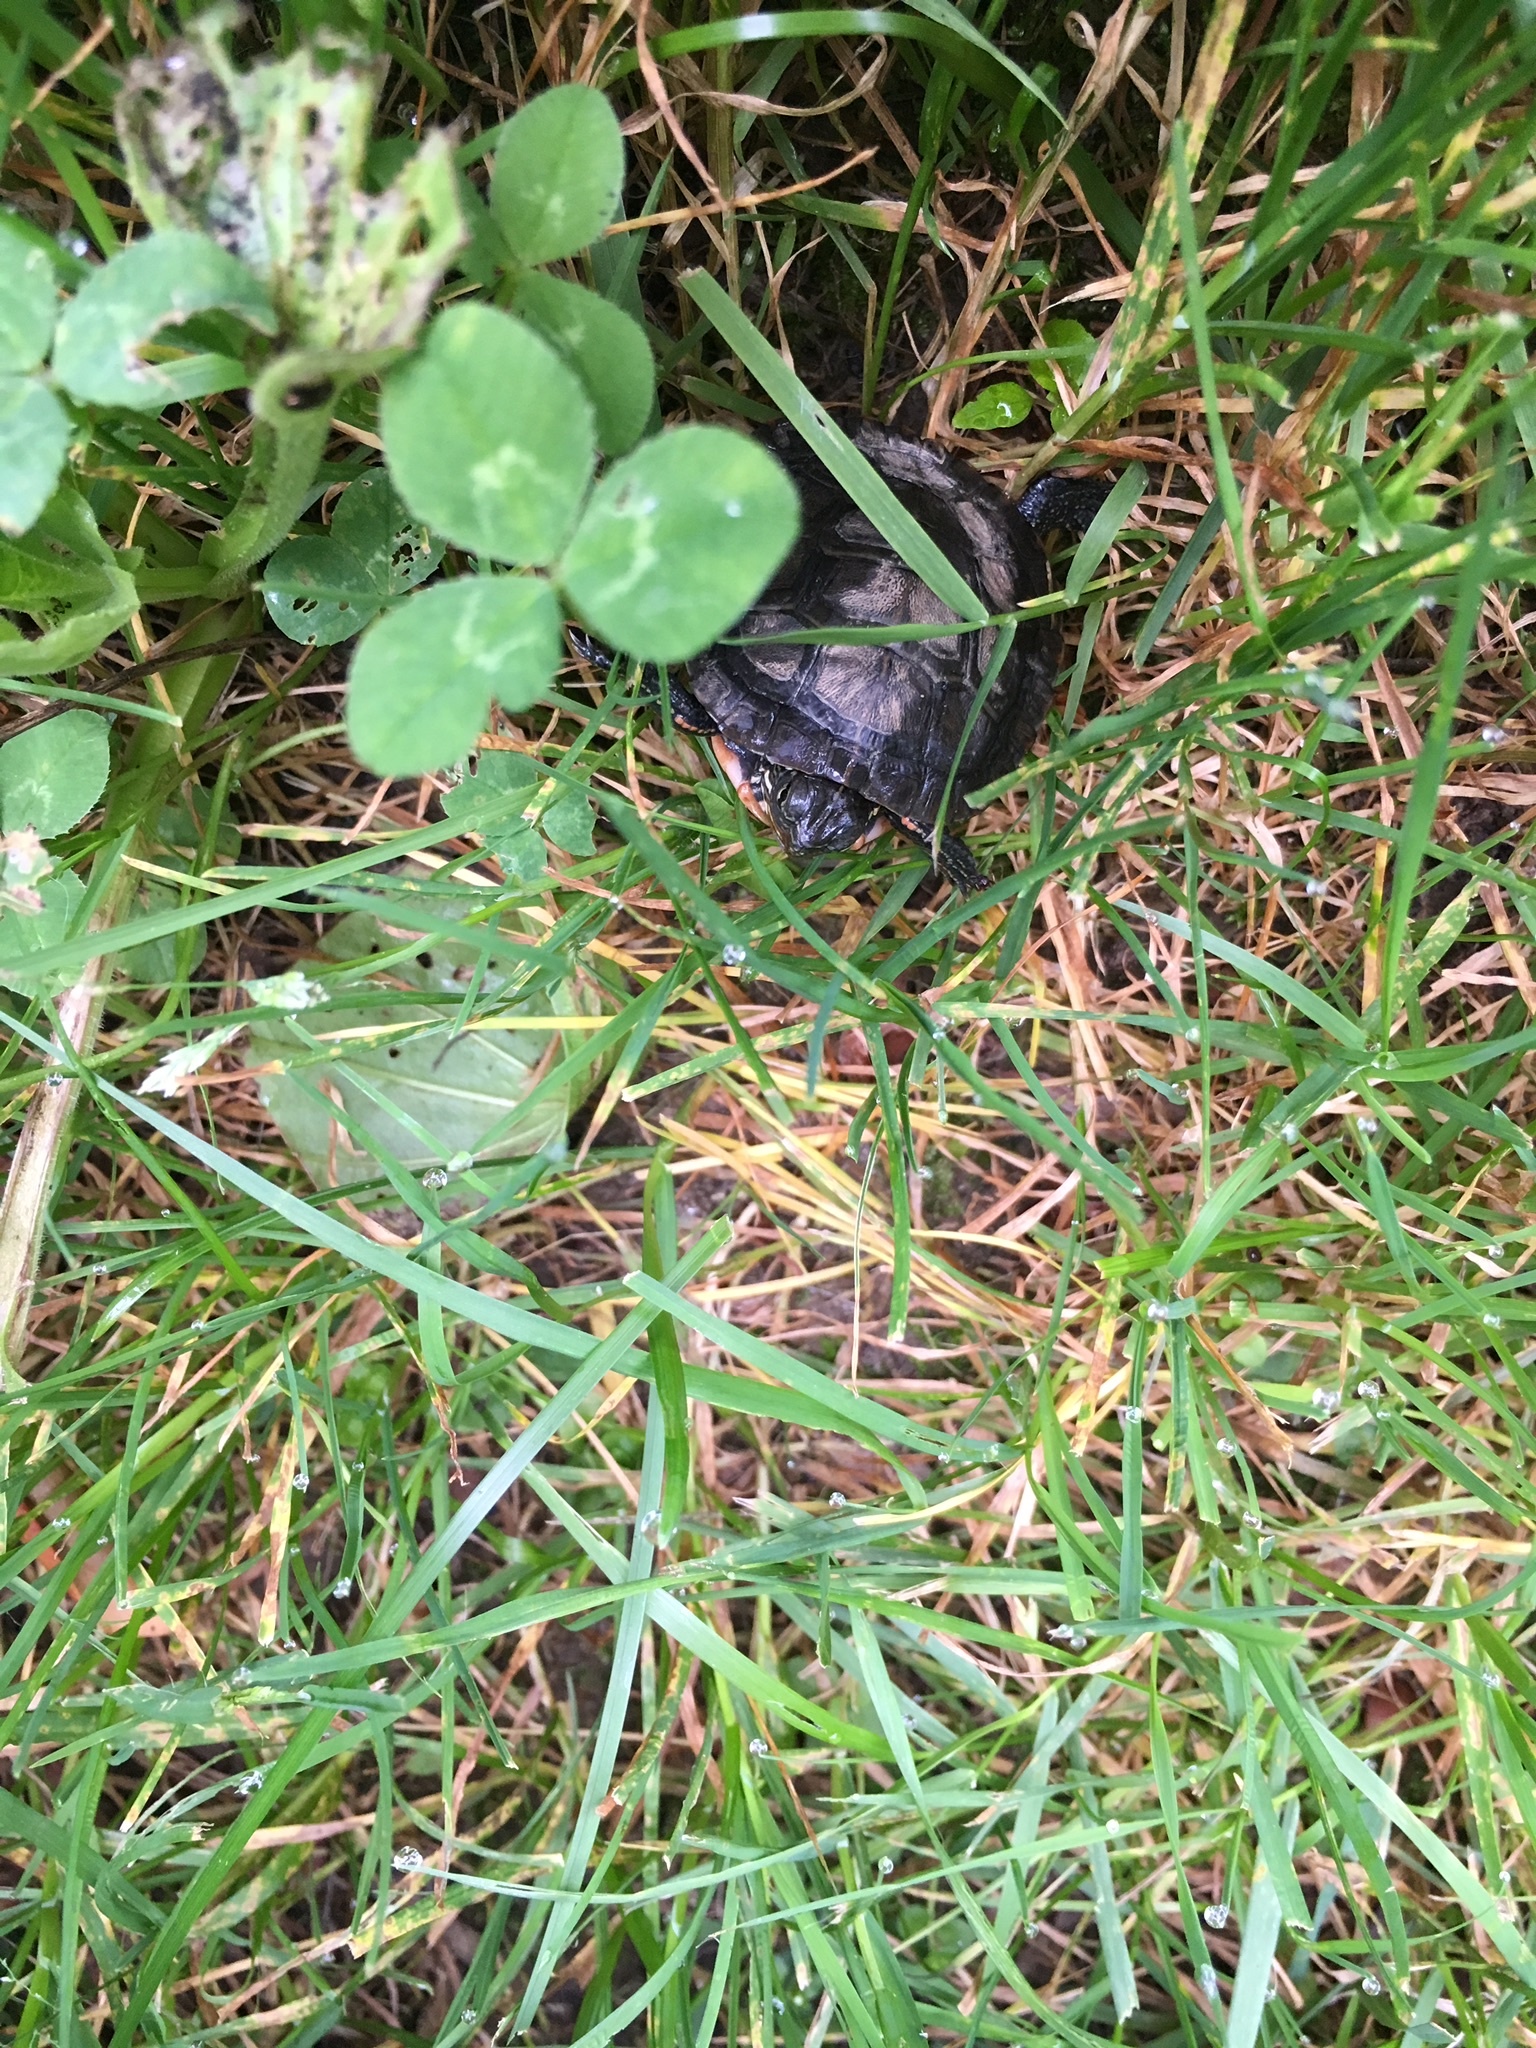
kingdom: Animalia
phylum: Chordata
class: Testudines
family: Emydidae
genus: Chrysemys
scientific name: Chrysemys picta
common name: Painted turtle
